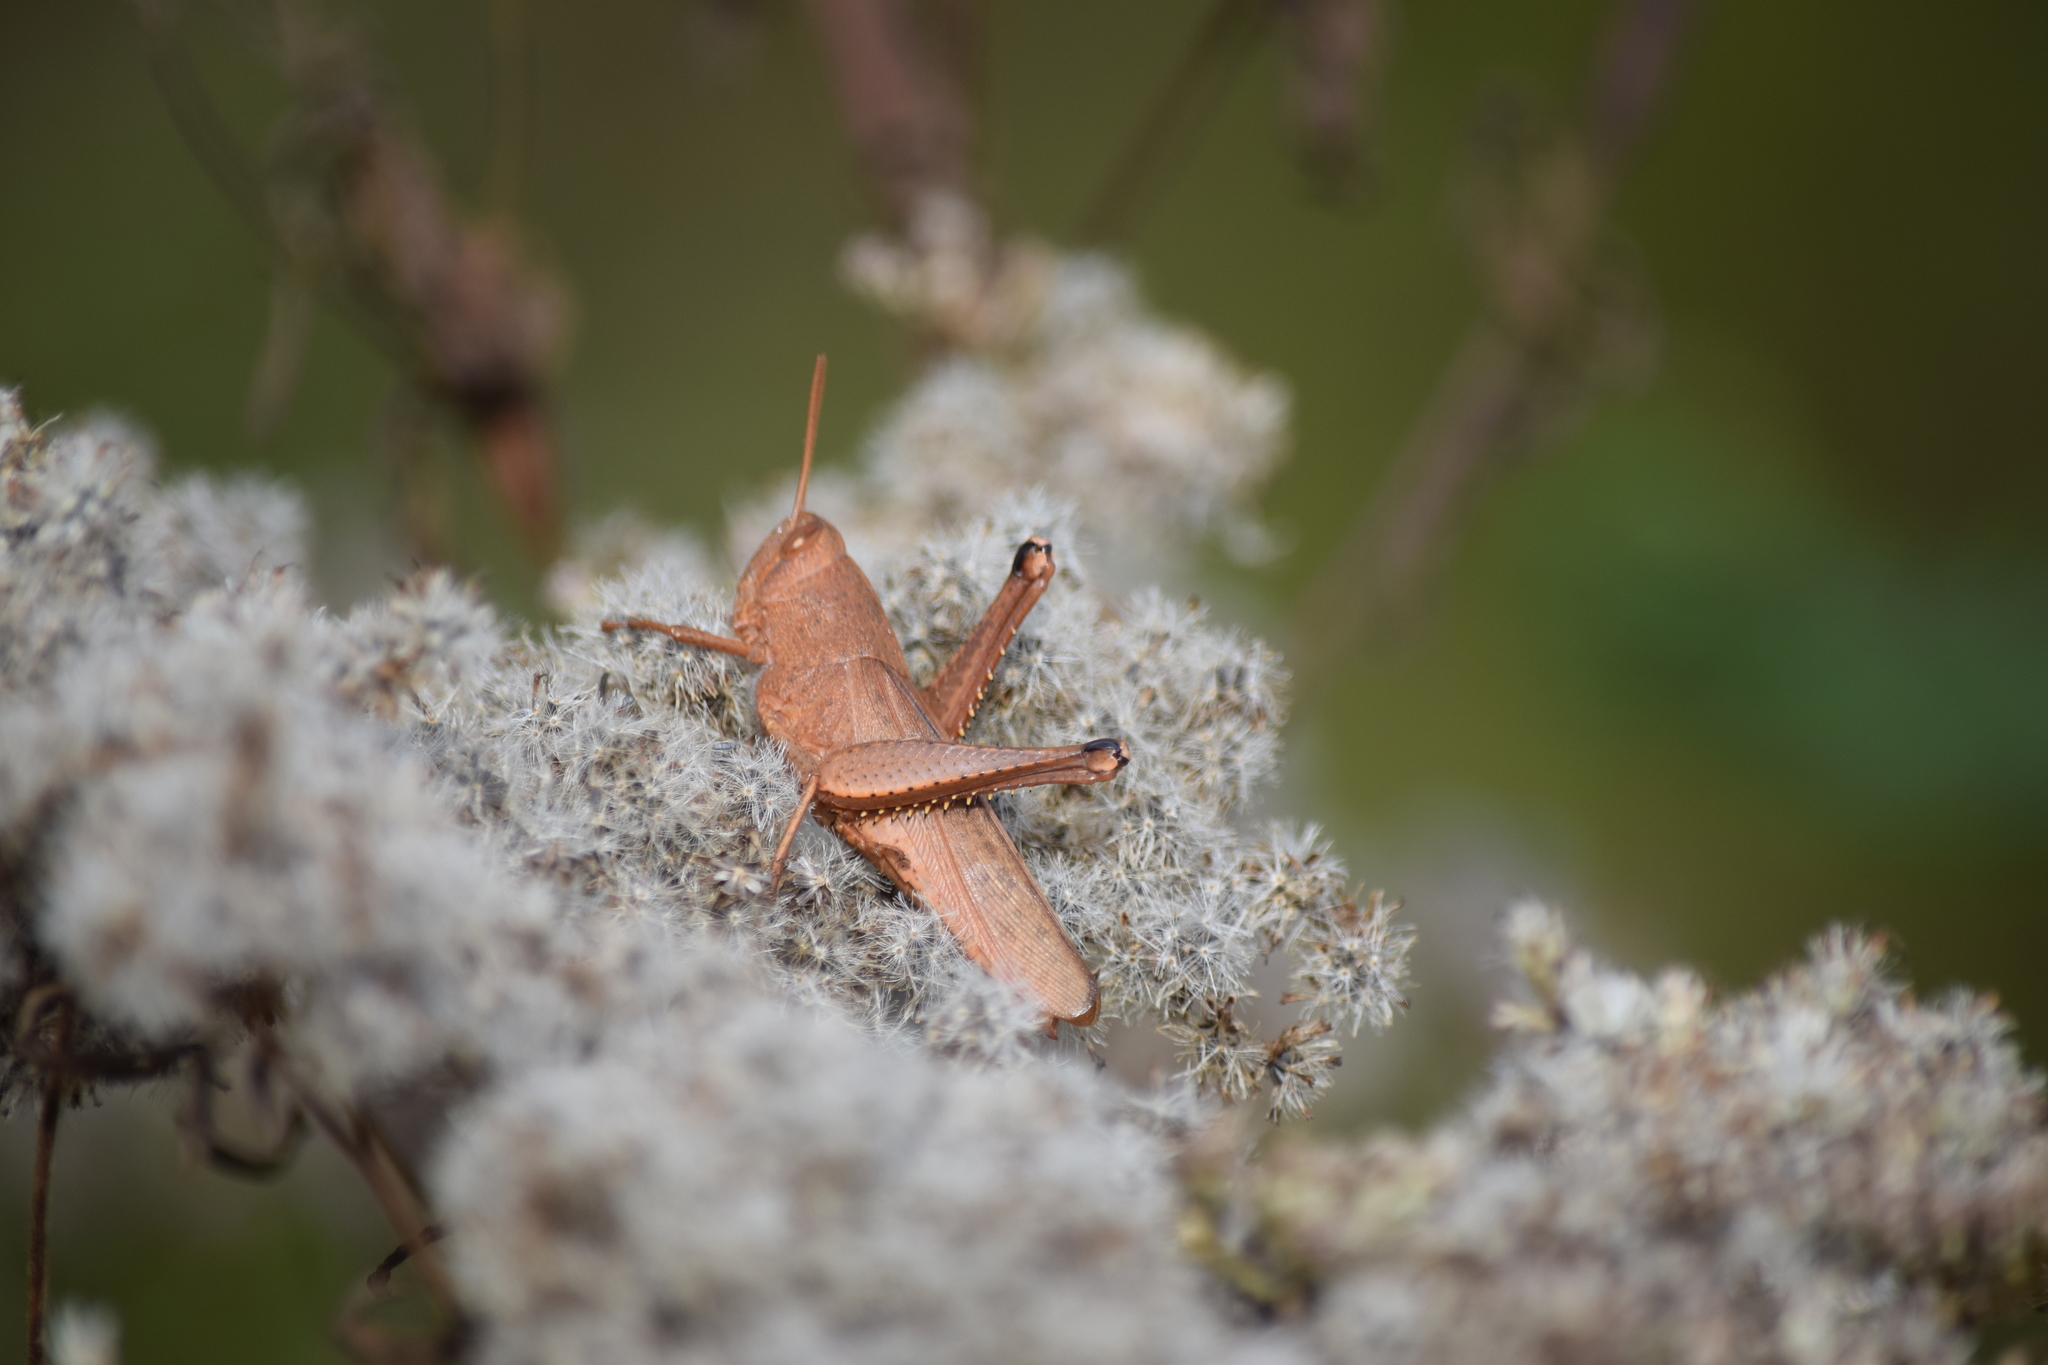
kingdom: Animalia
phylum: Arthropoda
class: Insecta
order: Orthoptera
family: Acrididae
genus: Schistocerca
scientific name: Schistocerca damnifica
